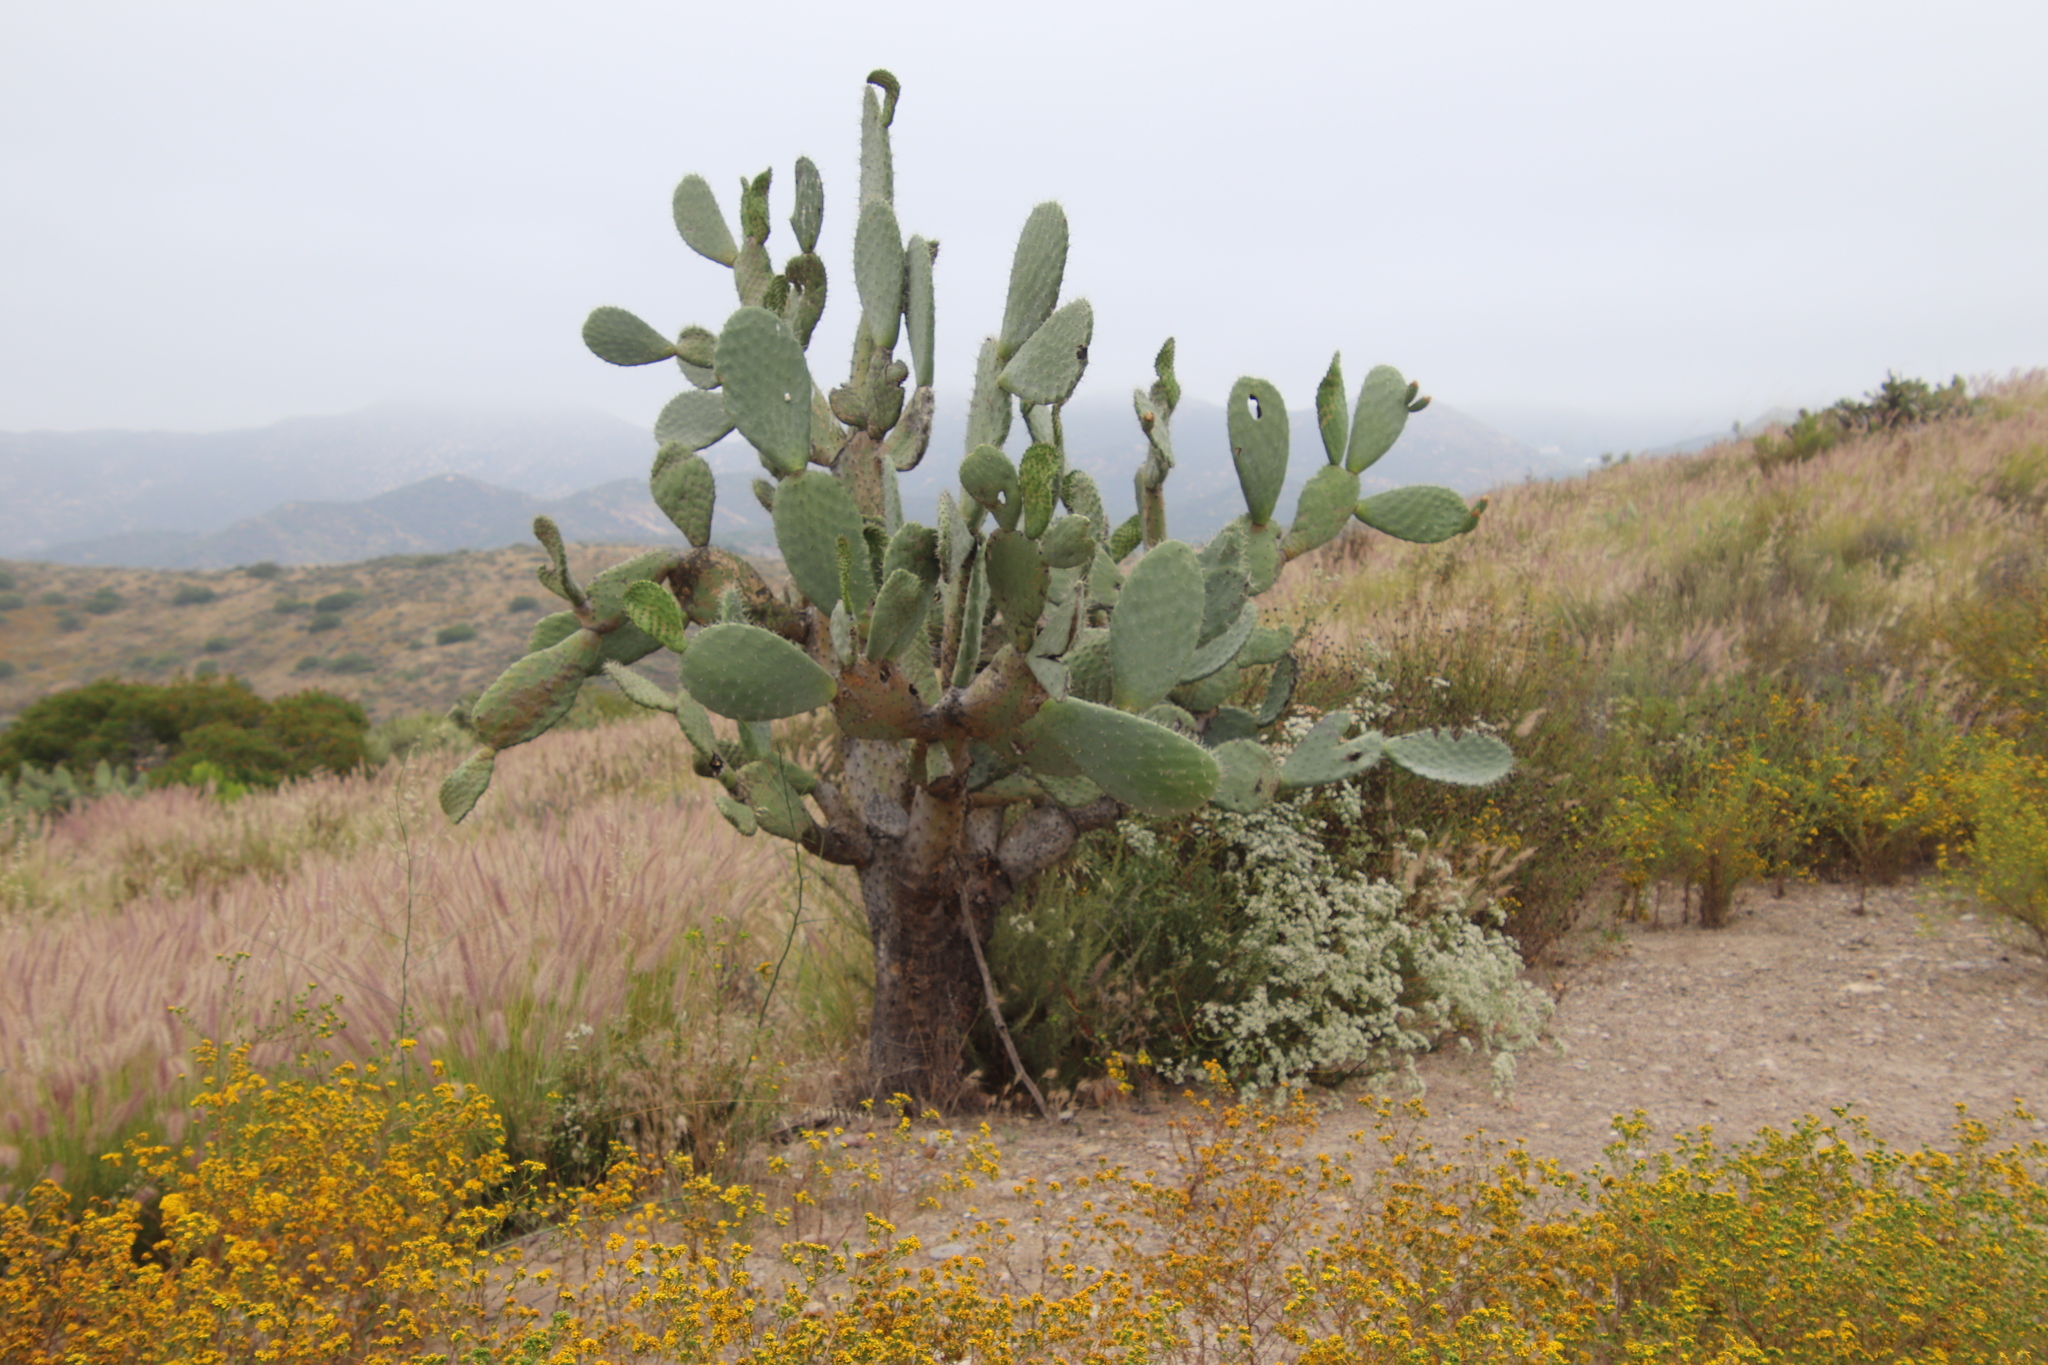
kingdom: Plantae
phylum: Tracheophyta
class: Magnoliopsida
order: Caryophyllales
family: Cactaceae
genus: Opuntia
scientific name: Opuntia ficus-indica
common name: Barbary fig
